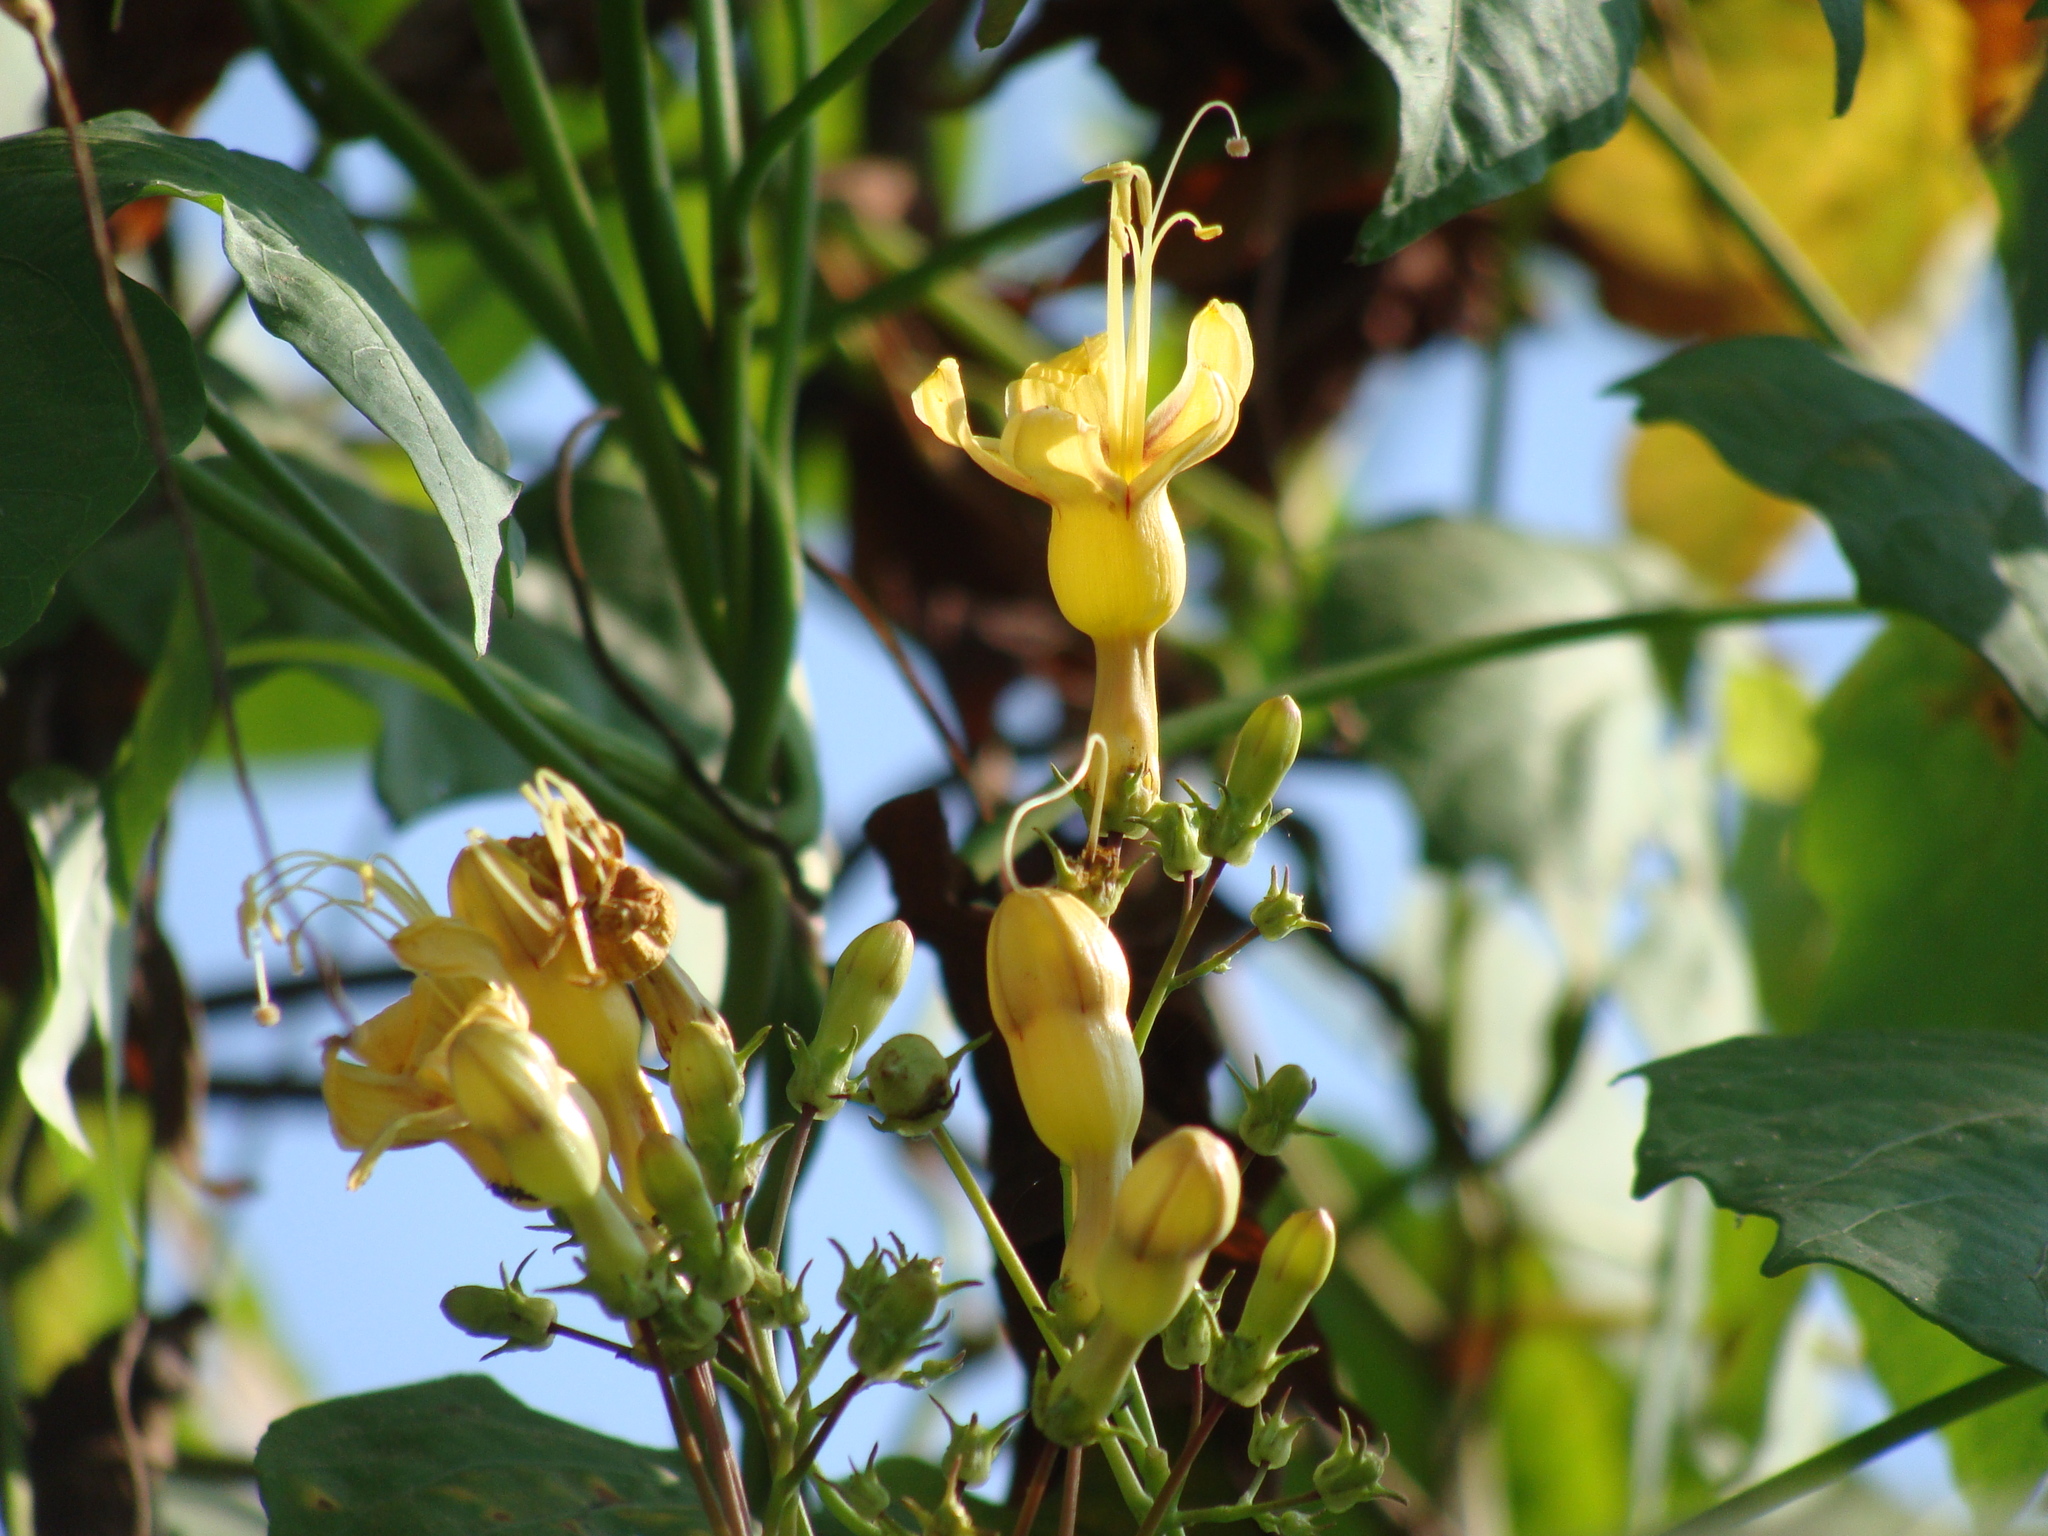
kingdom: Plantae
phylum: Tracheophyta
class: Magnoliopsida
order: Solanales
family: Convolvulaceae
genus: Ipomoea
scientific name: Ipomoea neei
